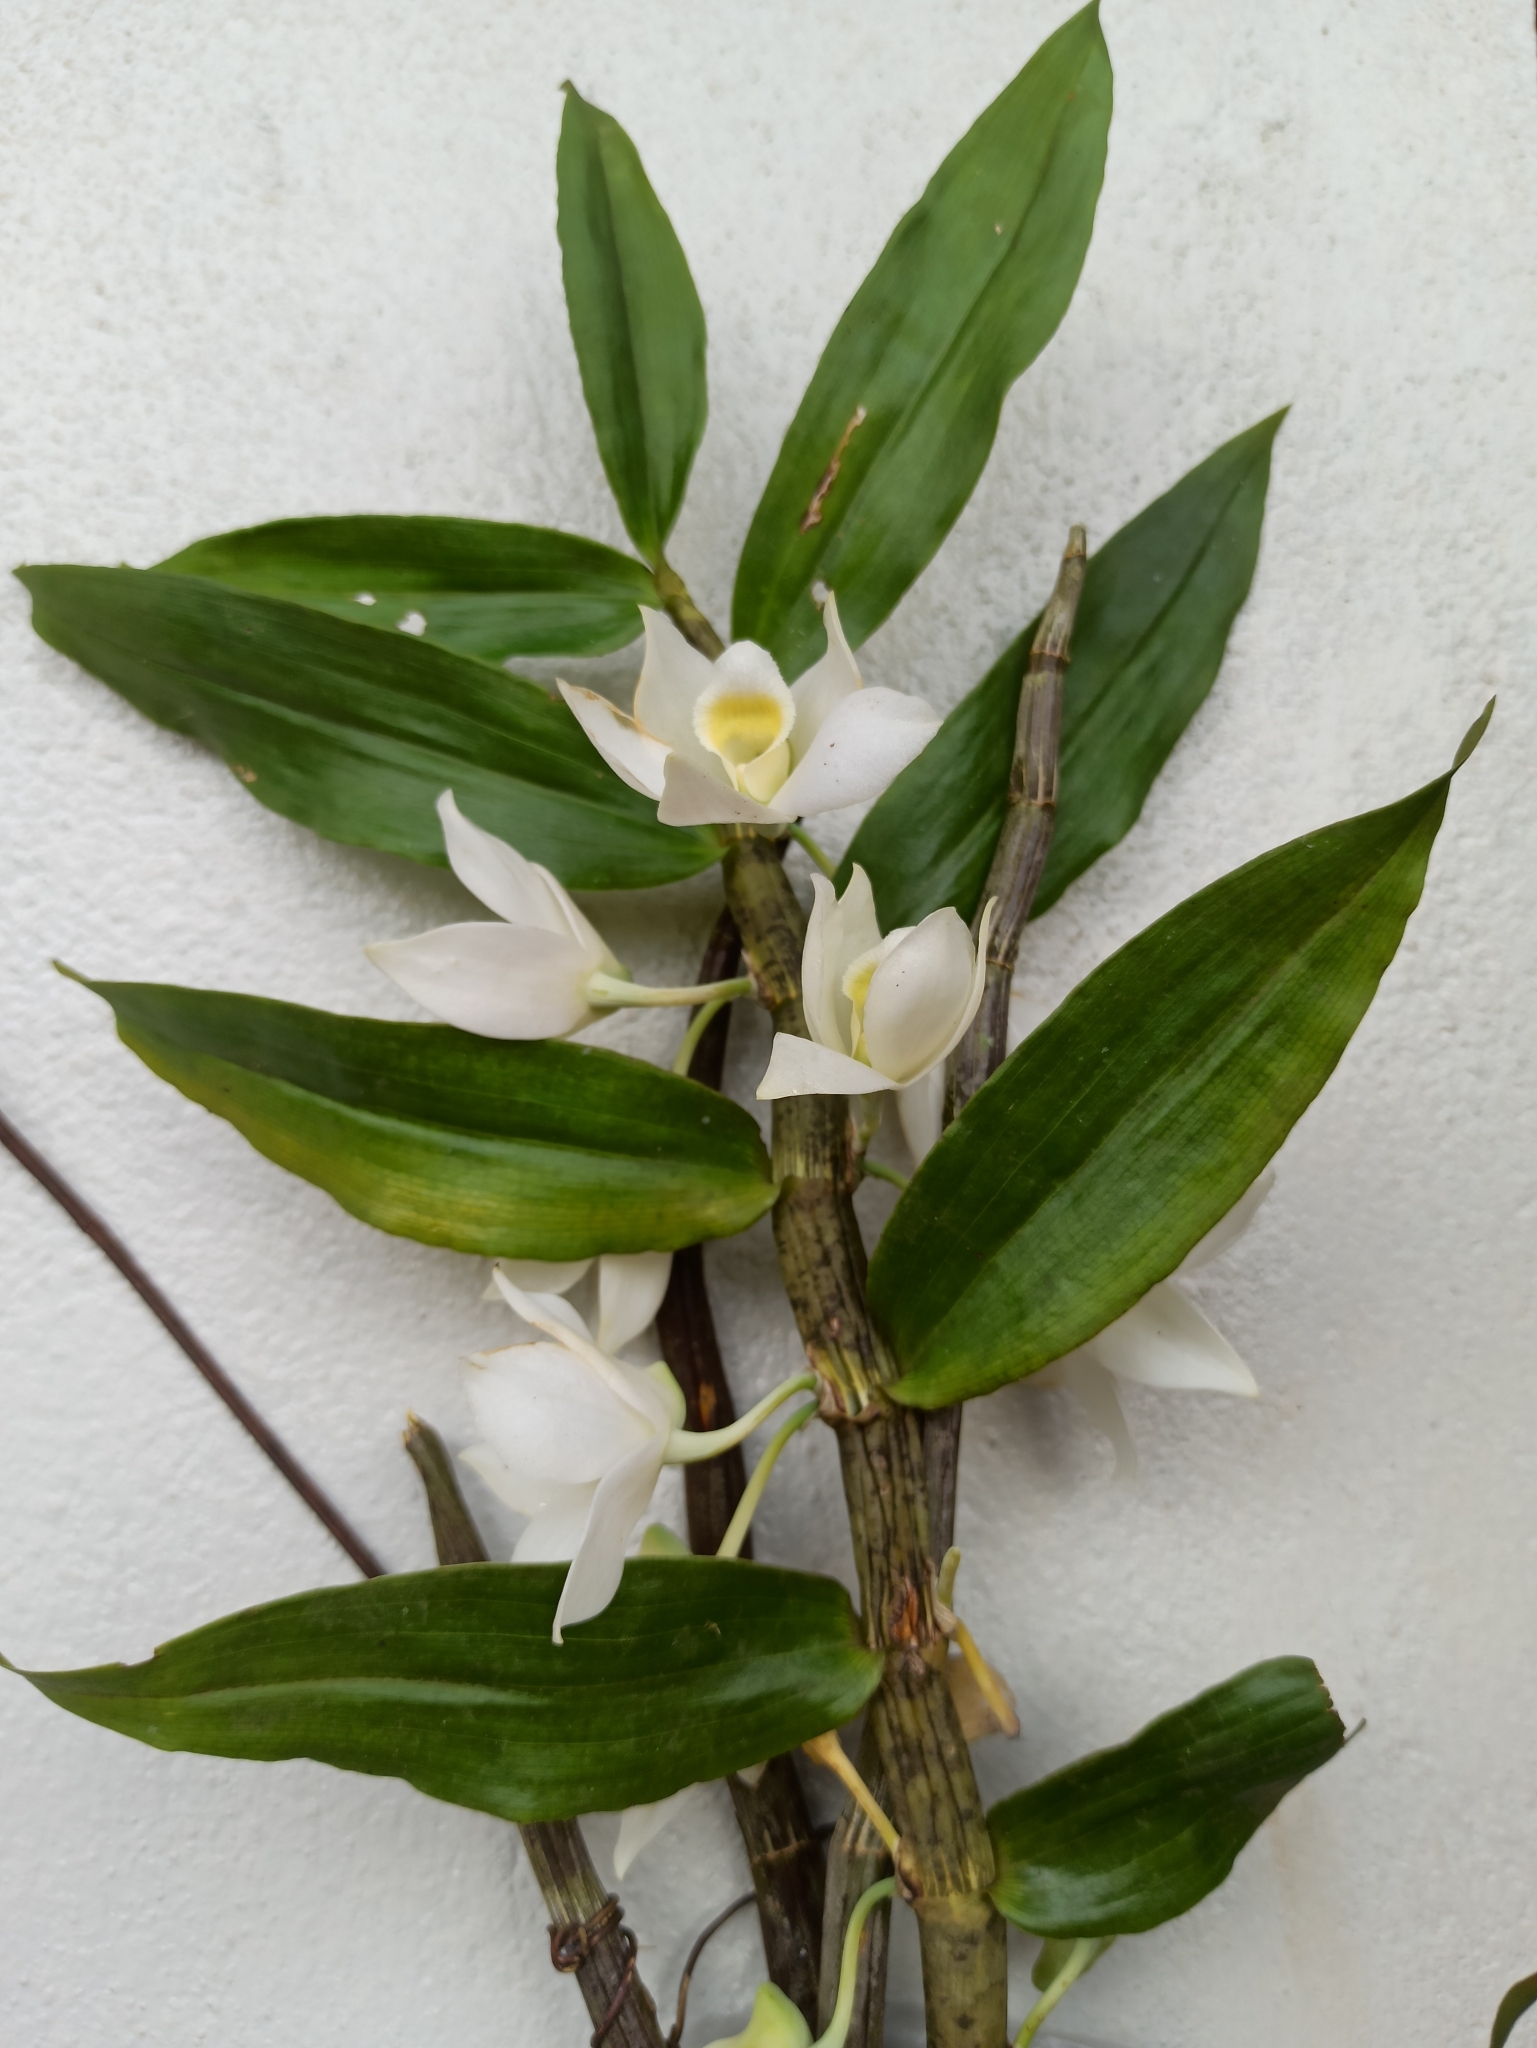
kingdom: Plantae
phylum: Tracheophyta
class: Liliopsida
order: Asparagales
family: Orchidaceae
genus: Dendrobium
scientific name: Dendrobium aqueum
